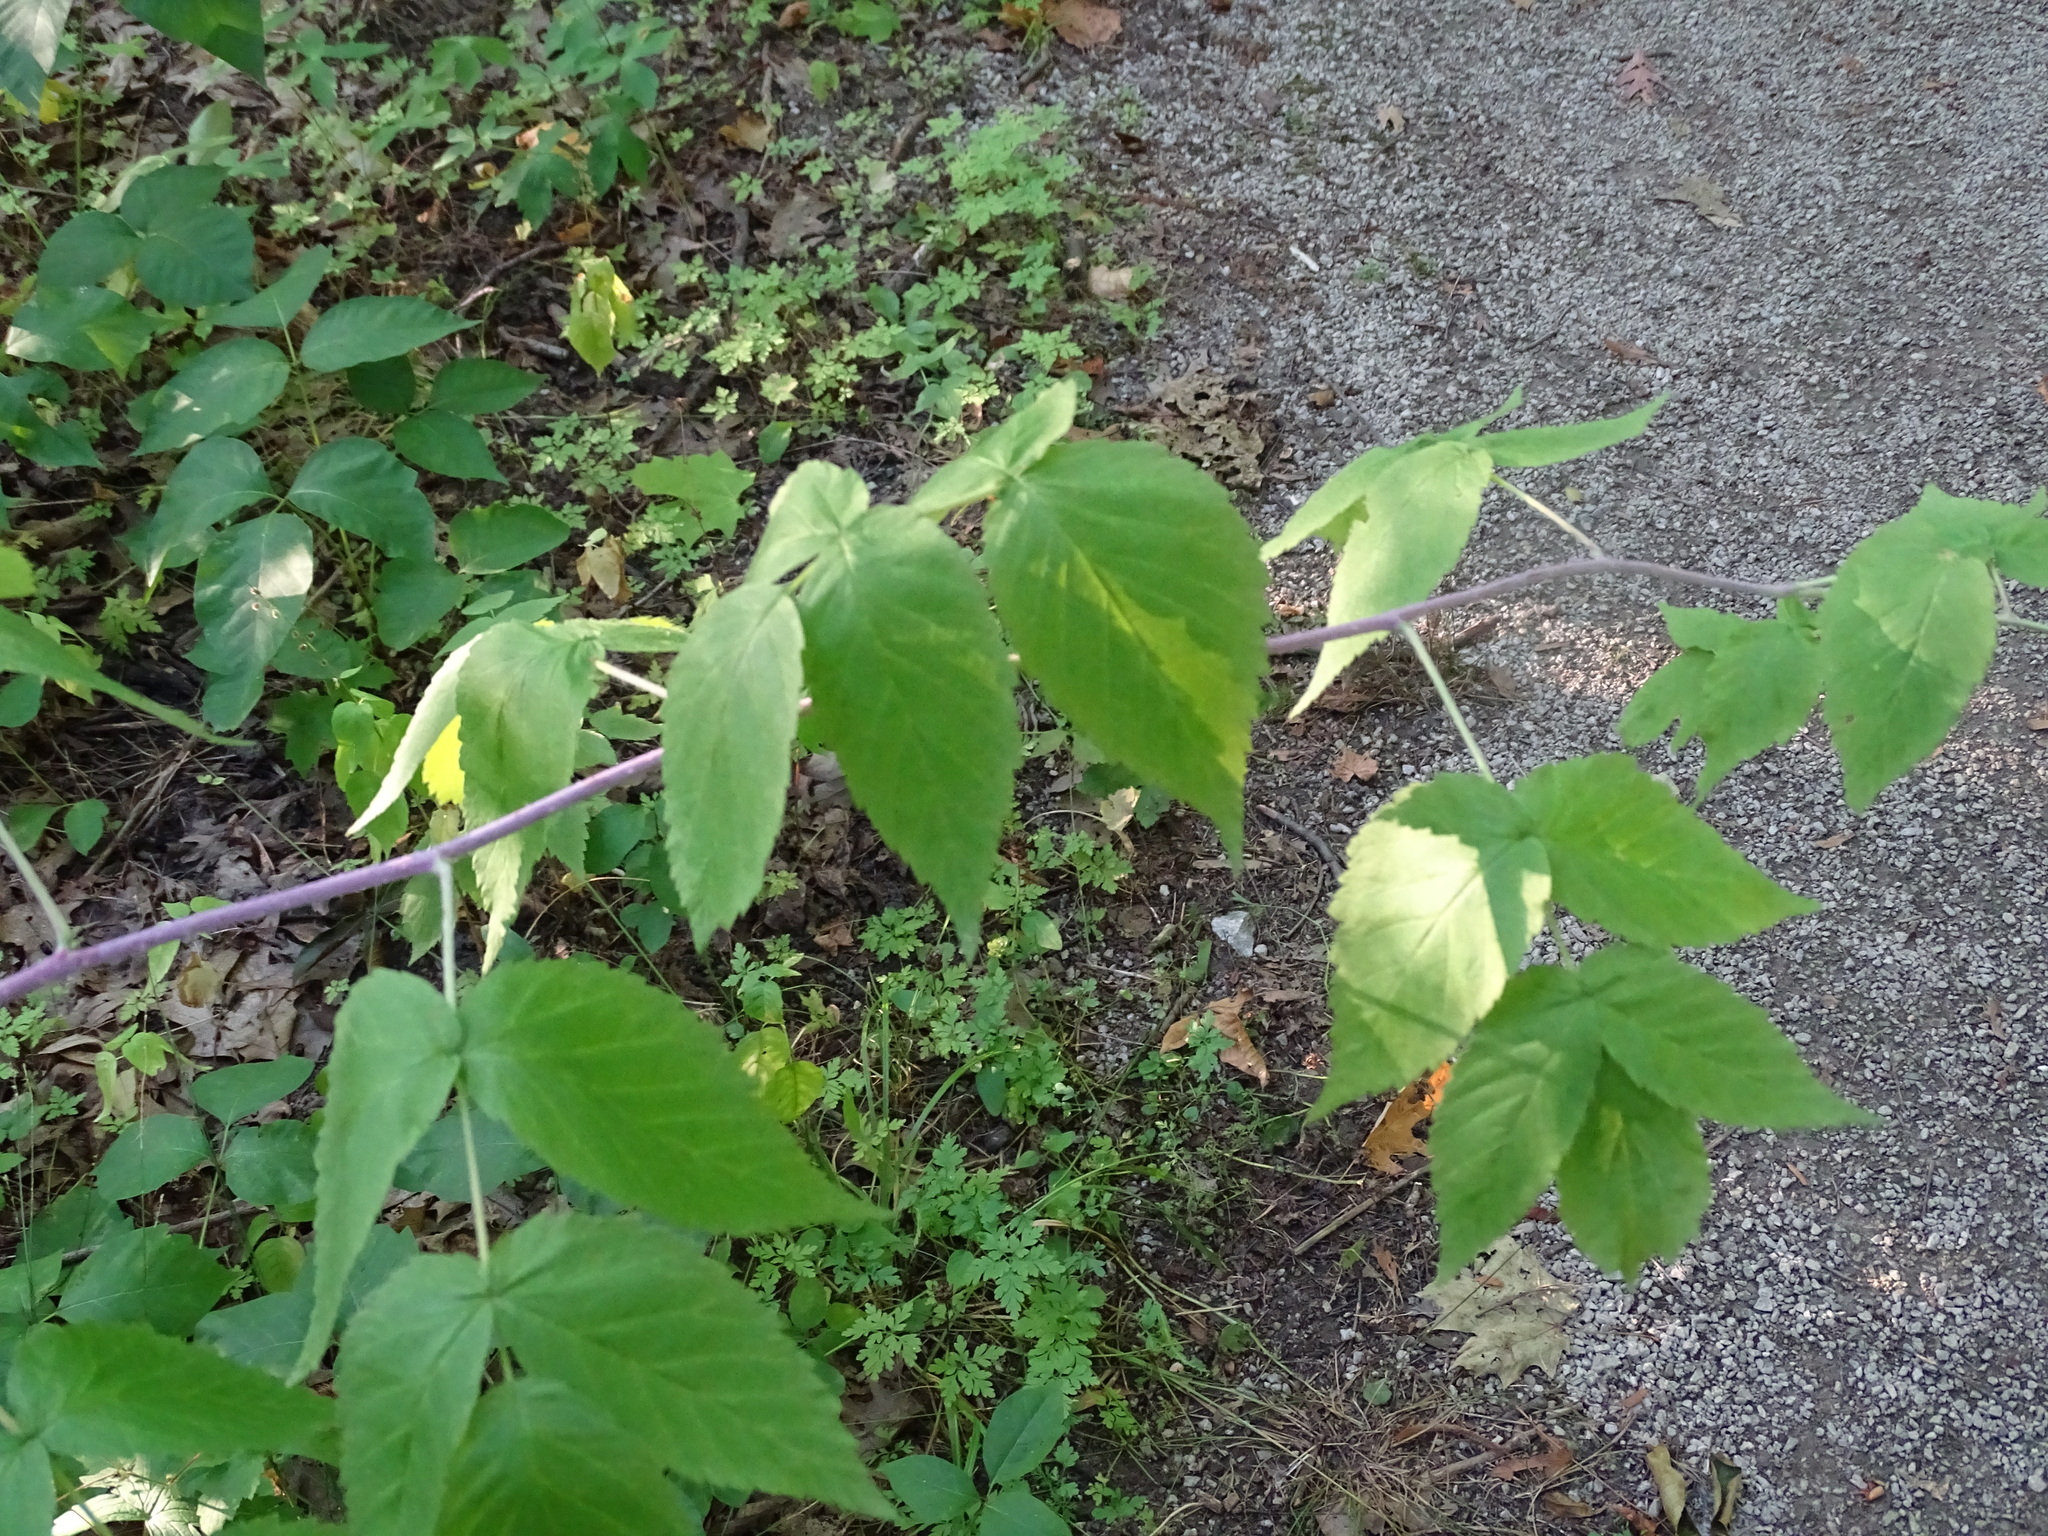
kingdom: Plantae
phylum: Tracheophyta
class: Magnoliopsida
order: Rosales
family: Rosaceae
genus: Rubus
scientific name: Rubus idaeus
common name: Raspberry
